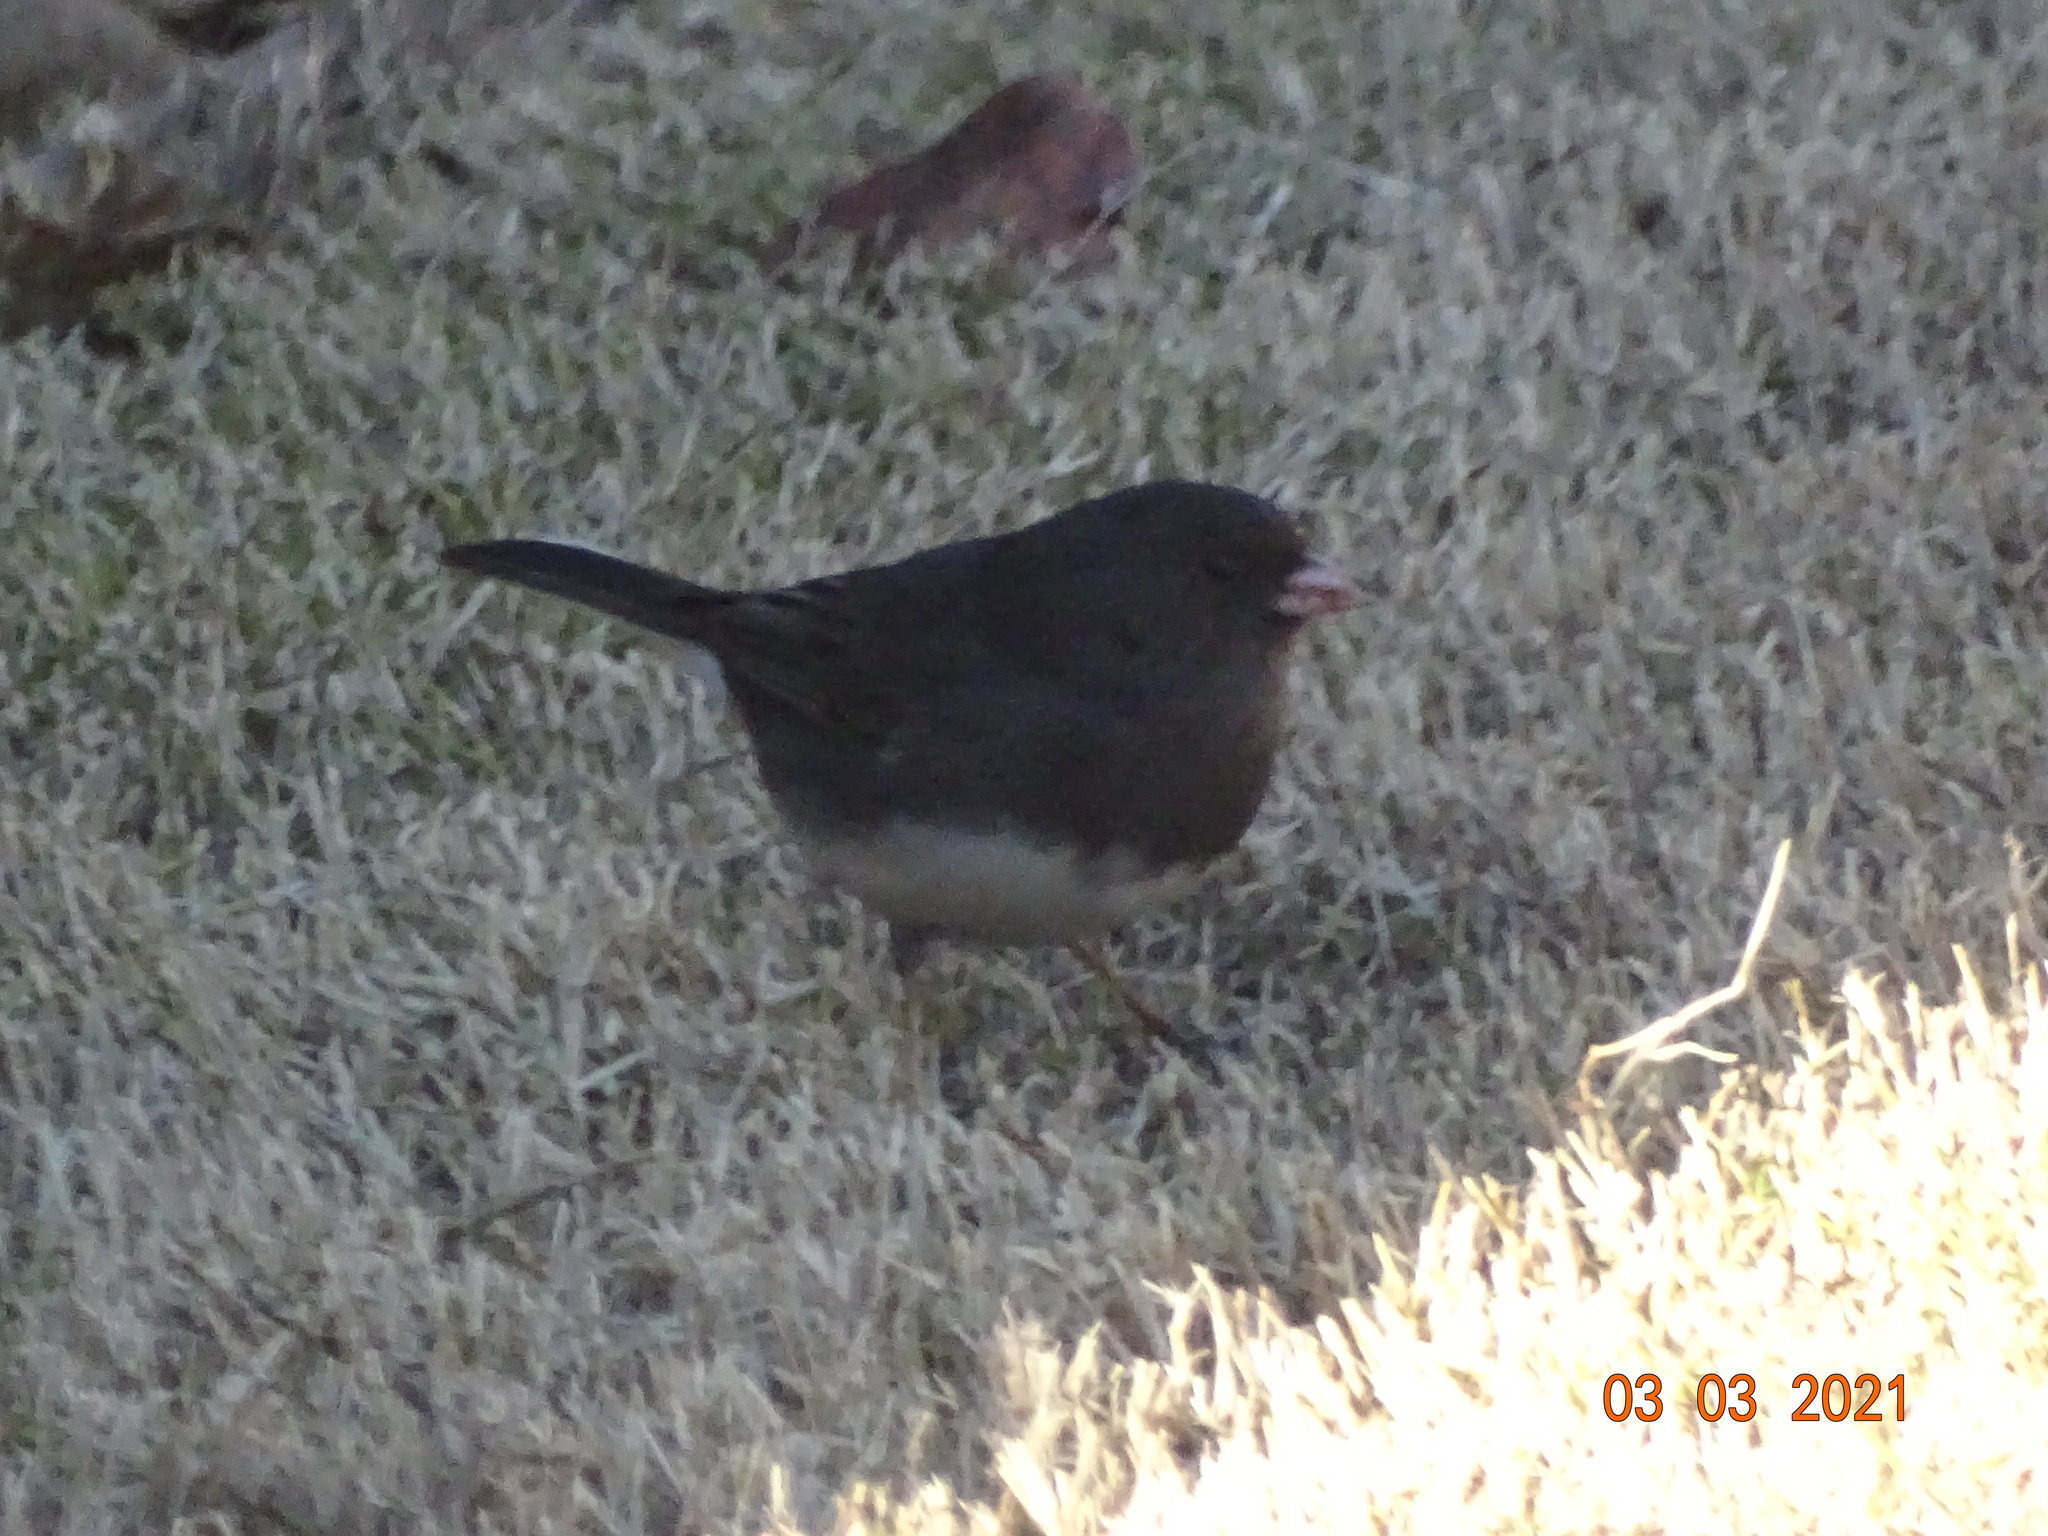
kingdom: Animalia
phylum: Chordata
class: Aves
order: Passeriformes
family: Passerellidae
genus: Junco
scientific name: Junco hyemalis
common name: Dark-eyed junco
